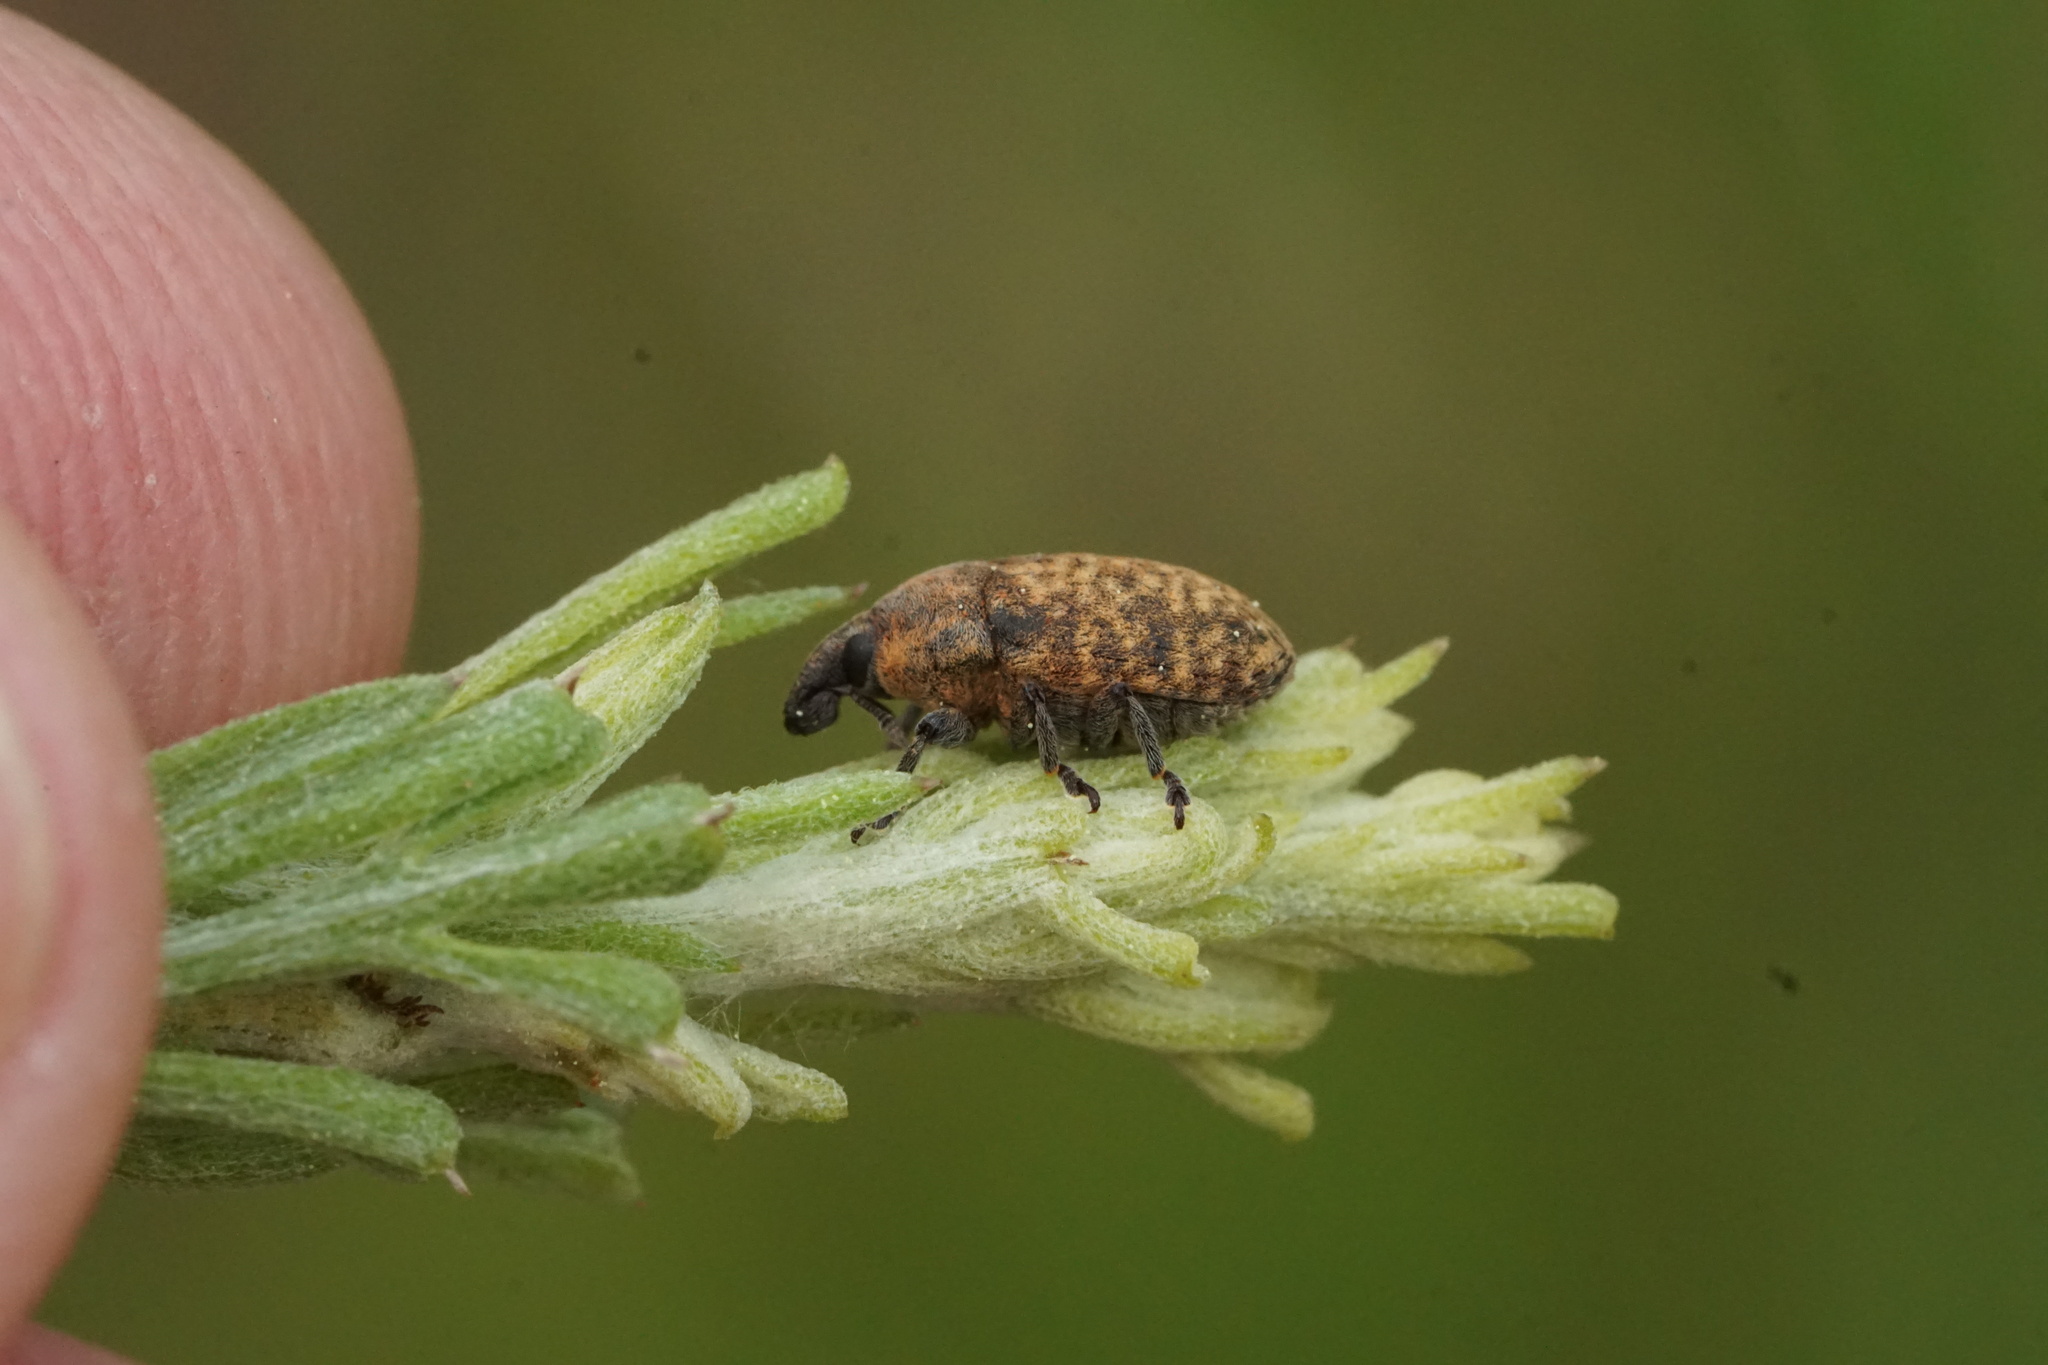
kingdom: Animalia
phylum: Arthropoda
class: Insecta
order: Coleoptera
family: Curculionidae
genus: Larinus
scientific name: Larinus obtusus
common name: Weevil
